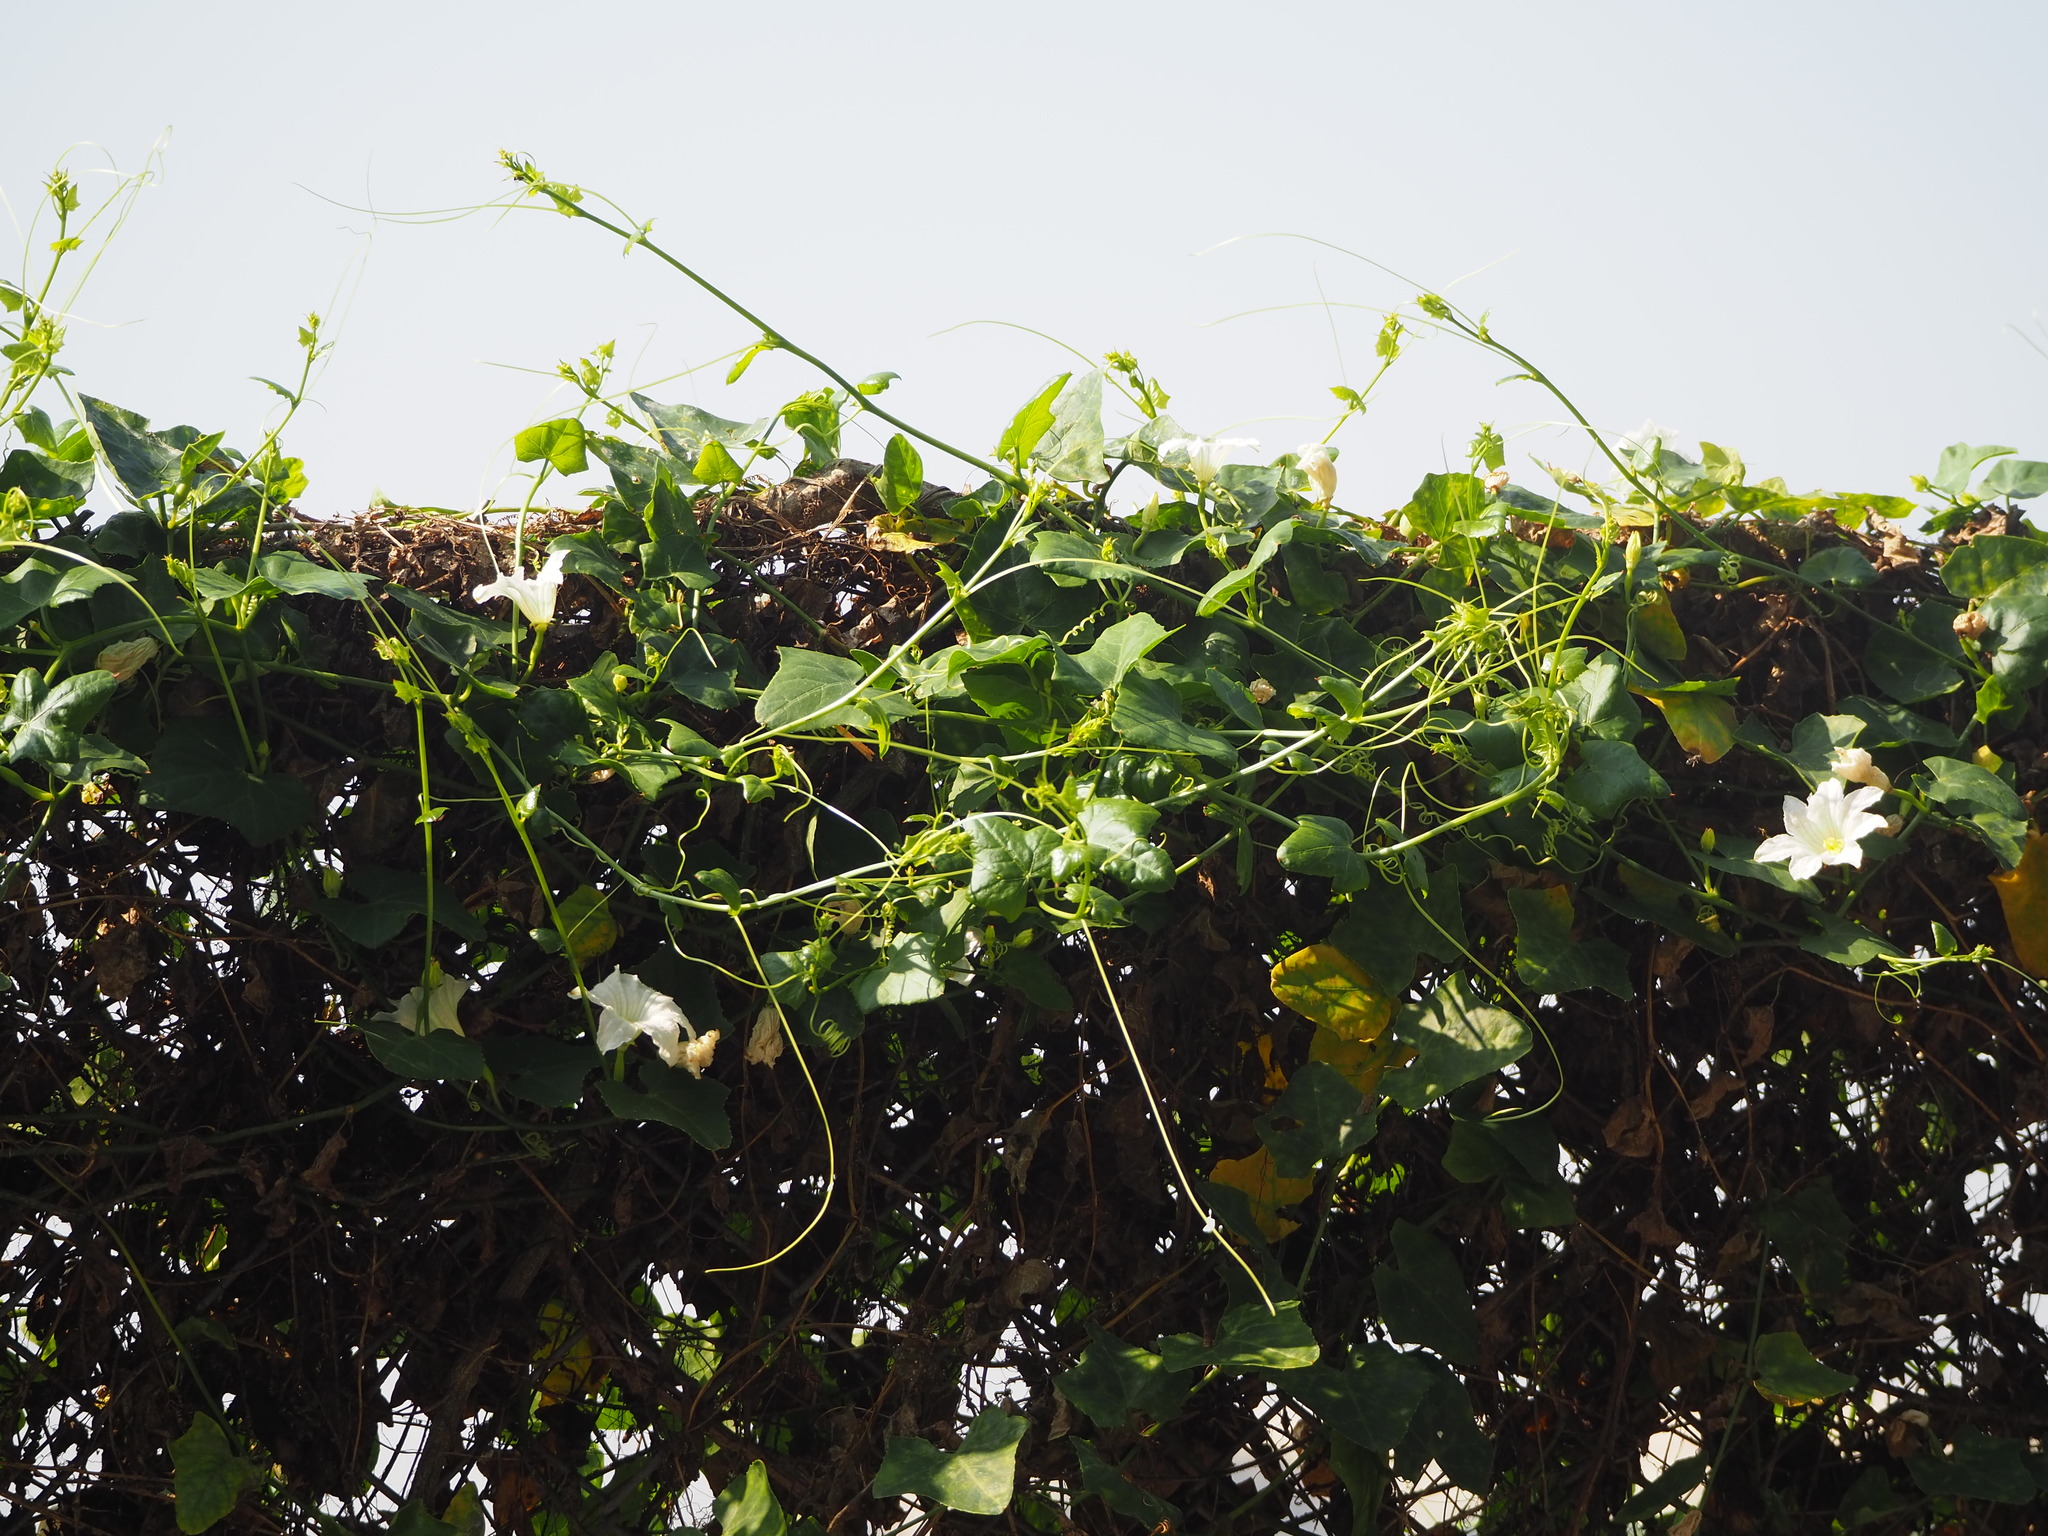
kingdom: Plantae
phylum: Tracheophyta
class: Magnoliopsida
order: Cucurbitales
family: Cucurbitaceae
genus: Coccinia
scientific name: Coccinia grandis
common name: Ivy gourd
